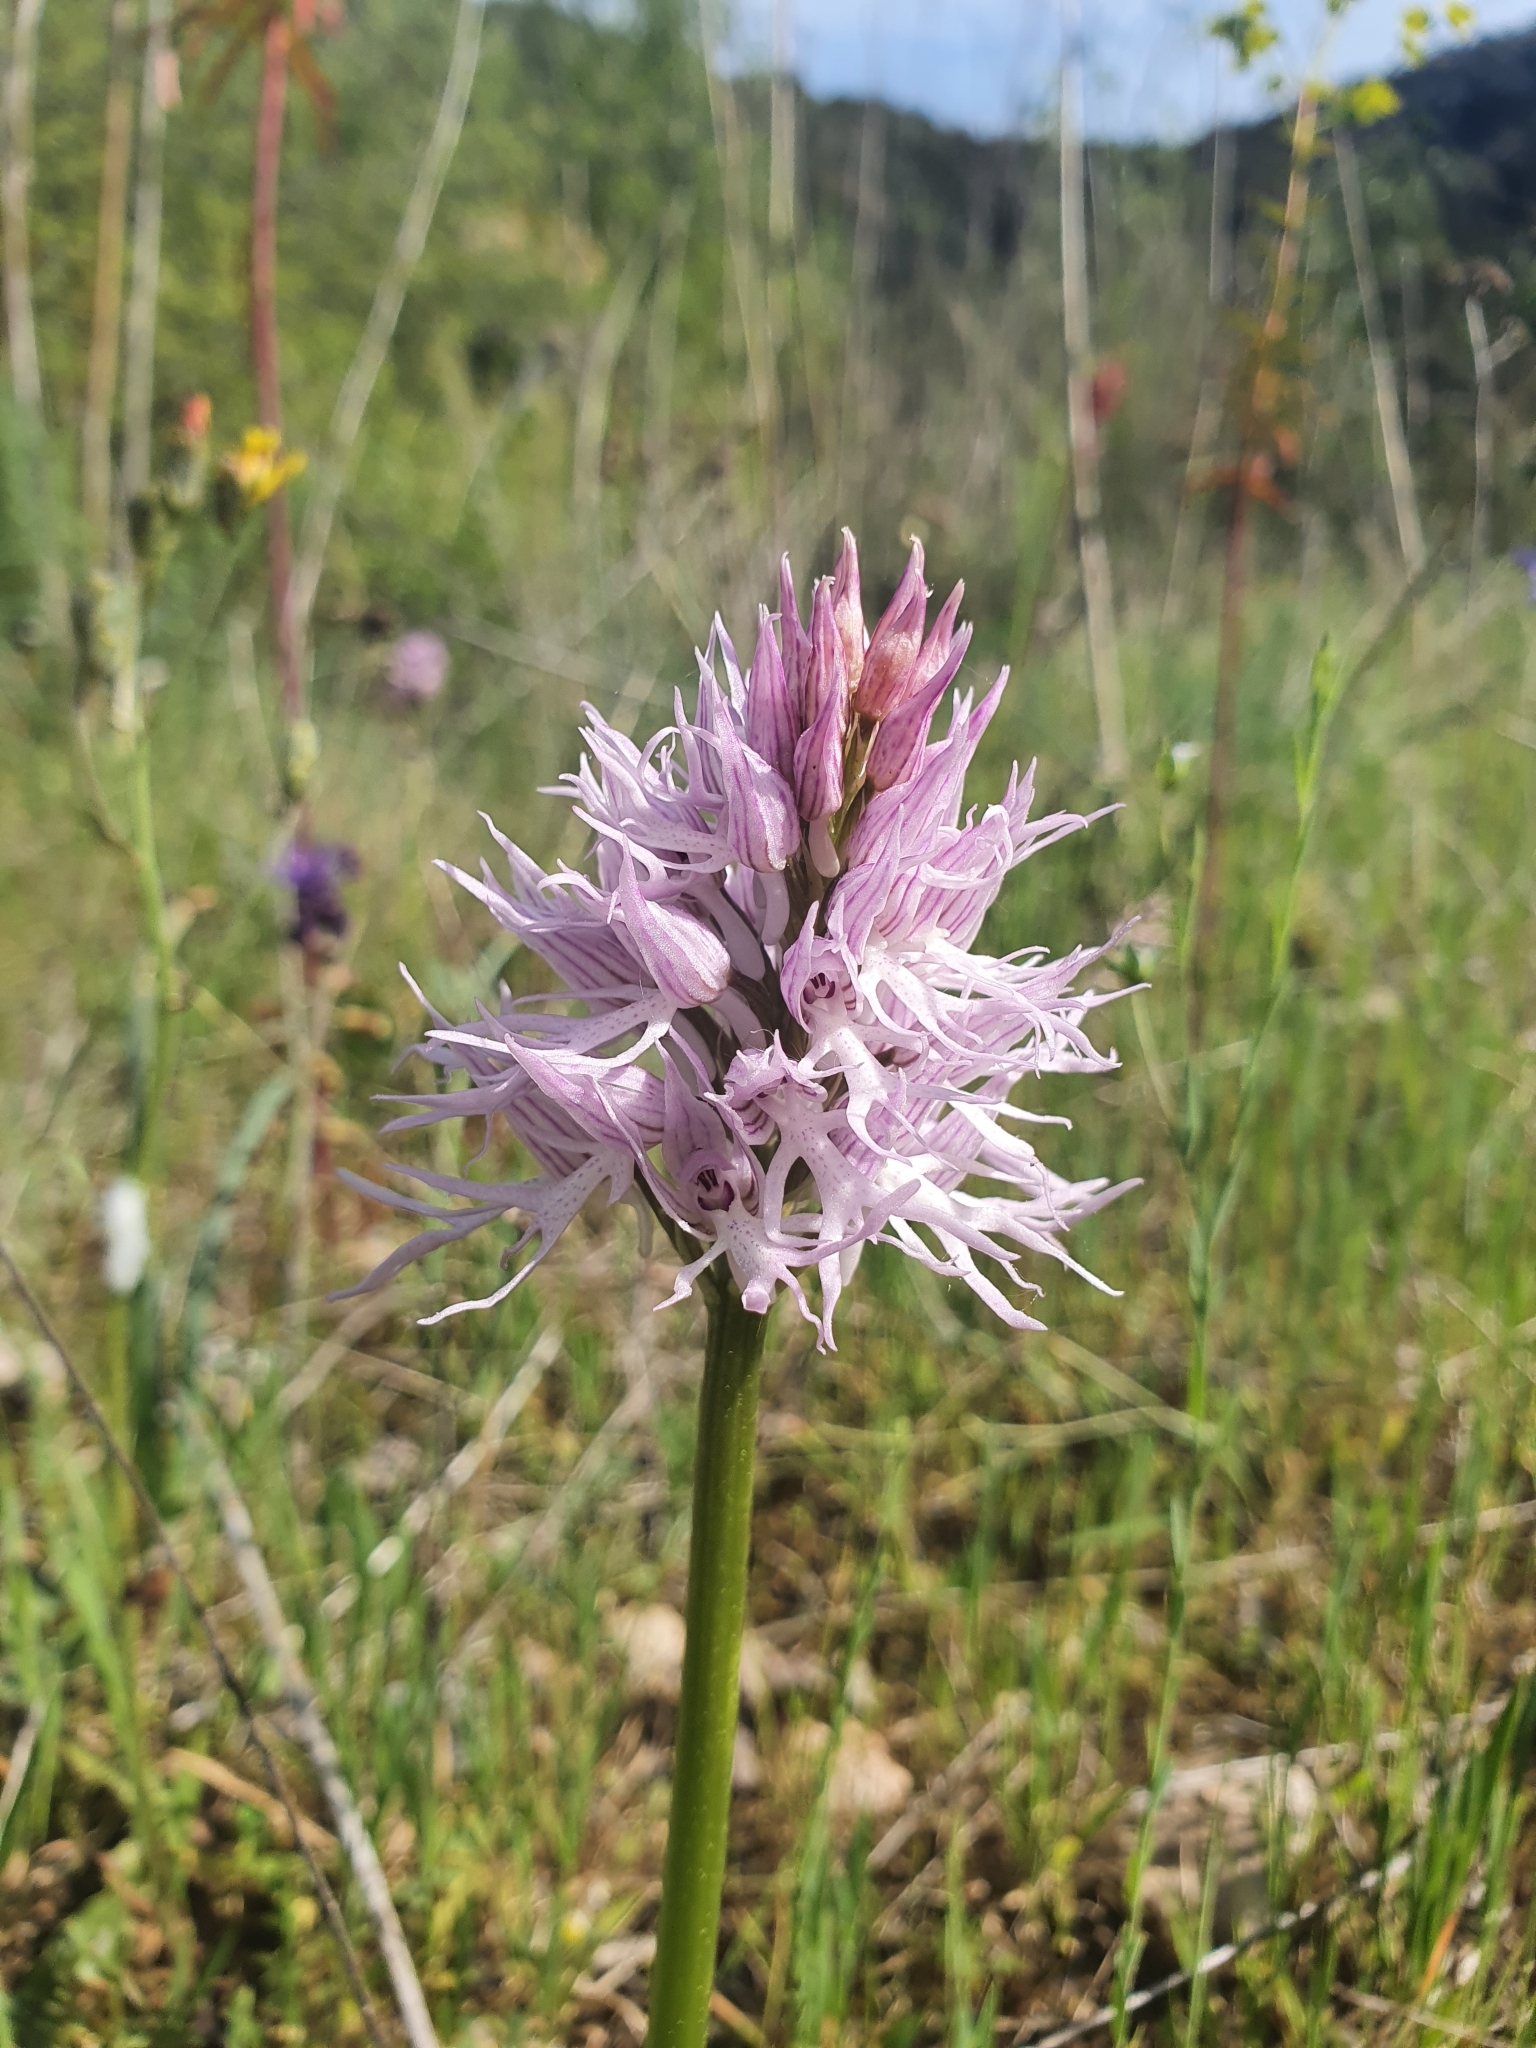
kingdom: Plantae
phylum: Tracheophyta
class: Liliopsida
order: Asparagales
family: Orchidaceae
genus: Orchis
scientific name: Orchis italica
